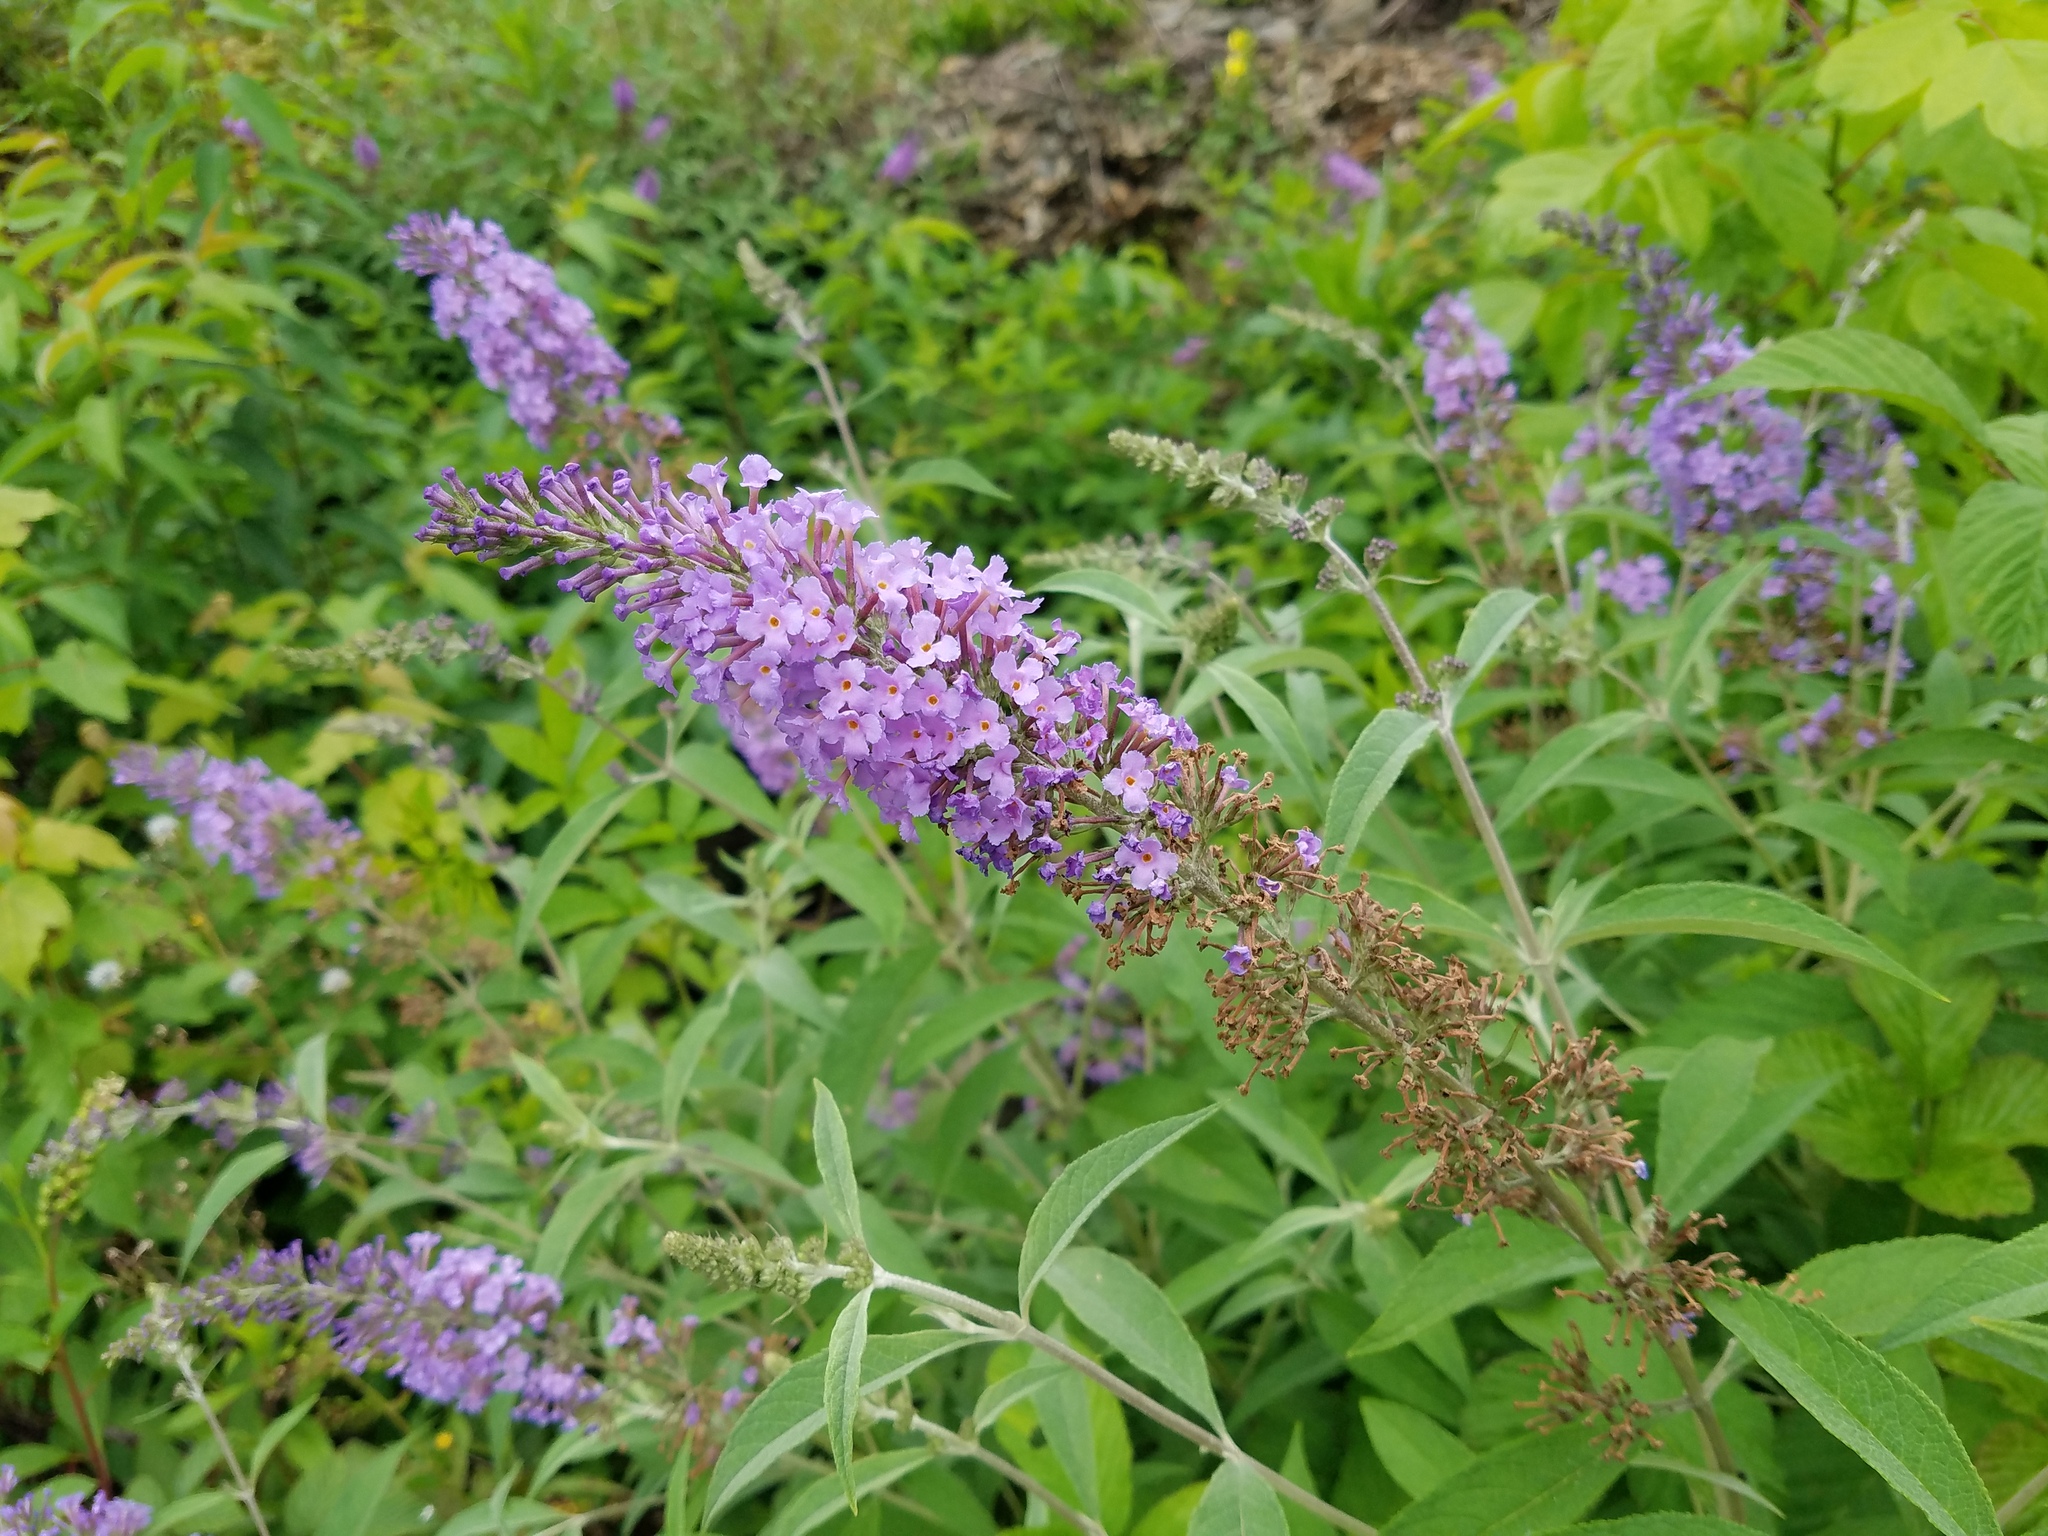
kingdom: Plantae
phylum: Tracheophyta
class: Magnoliopsida
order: Lamiales
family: Scrophulariaceae
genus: Buddleja
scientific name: Buddleja davidii
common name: Butterfly-bush
